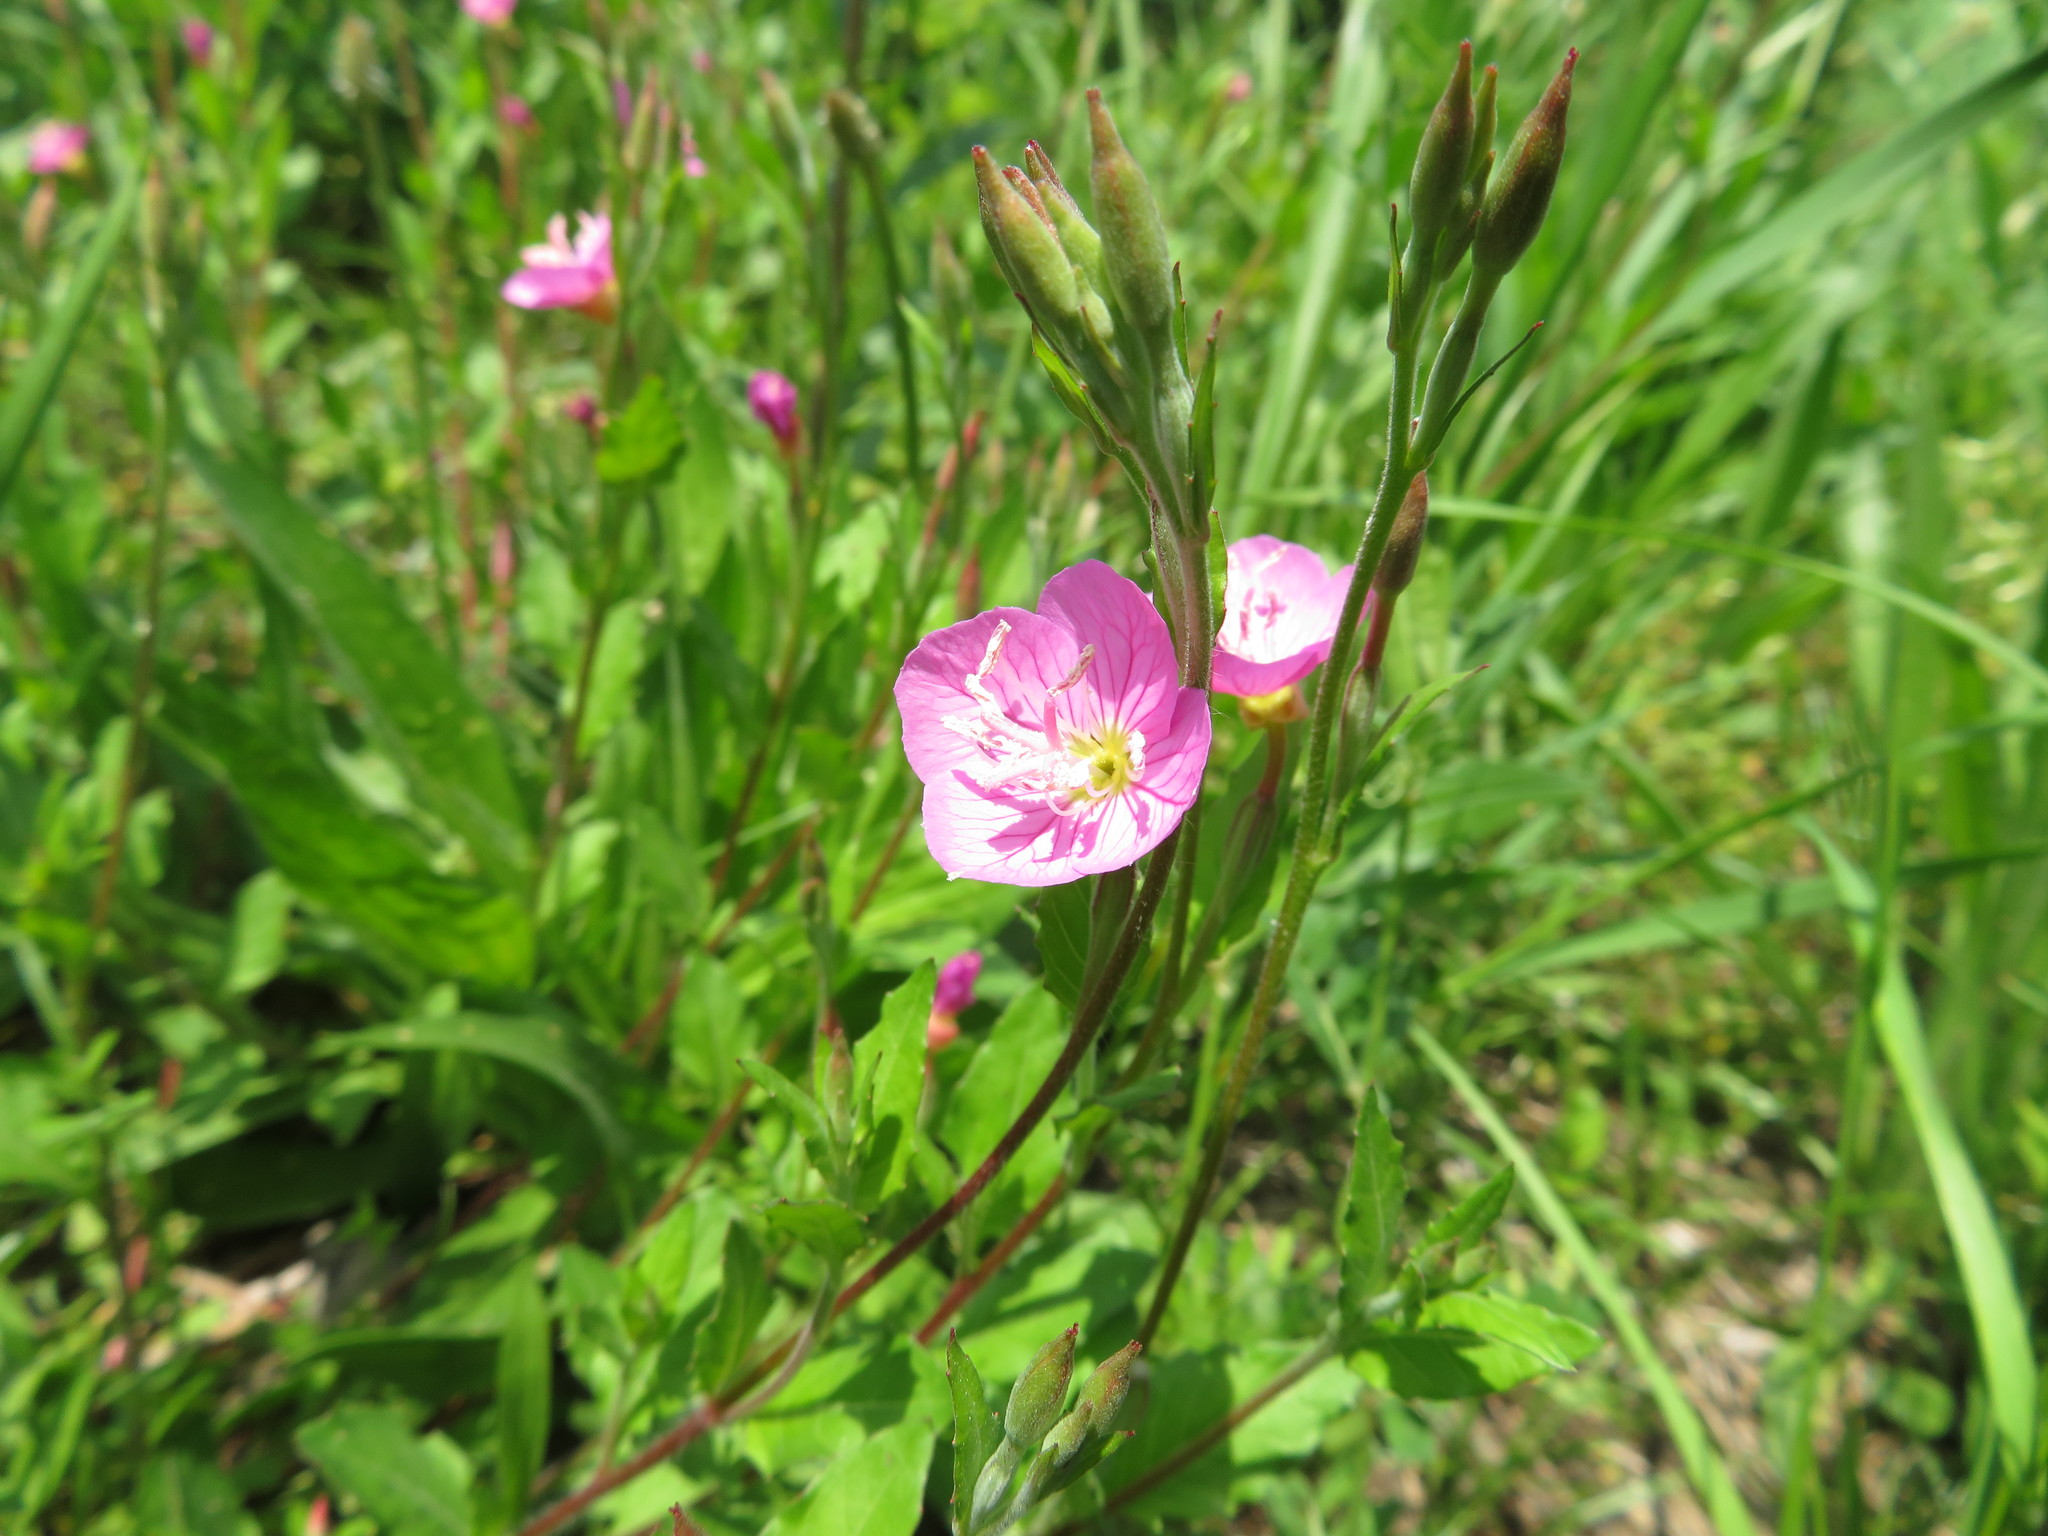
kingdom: Plantae
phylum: Tracheophyta
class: Magnoliopsida
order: Myrtales
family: Onagraceae
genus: Oenothera
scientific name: Oenothera rosea
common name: Rosy evening-primrose
